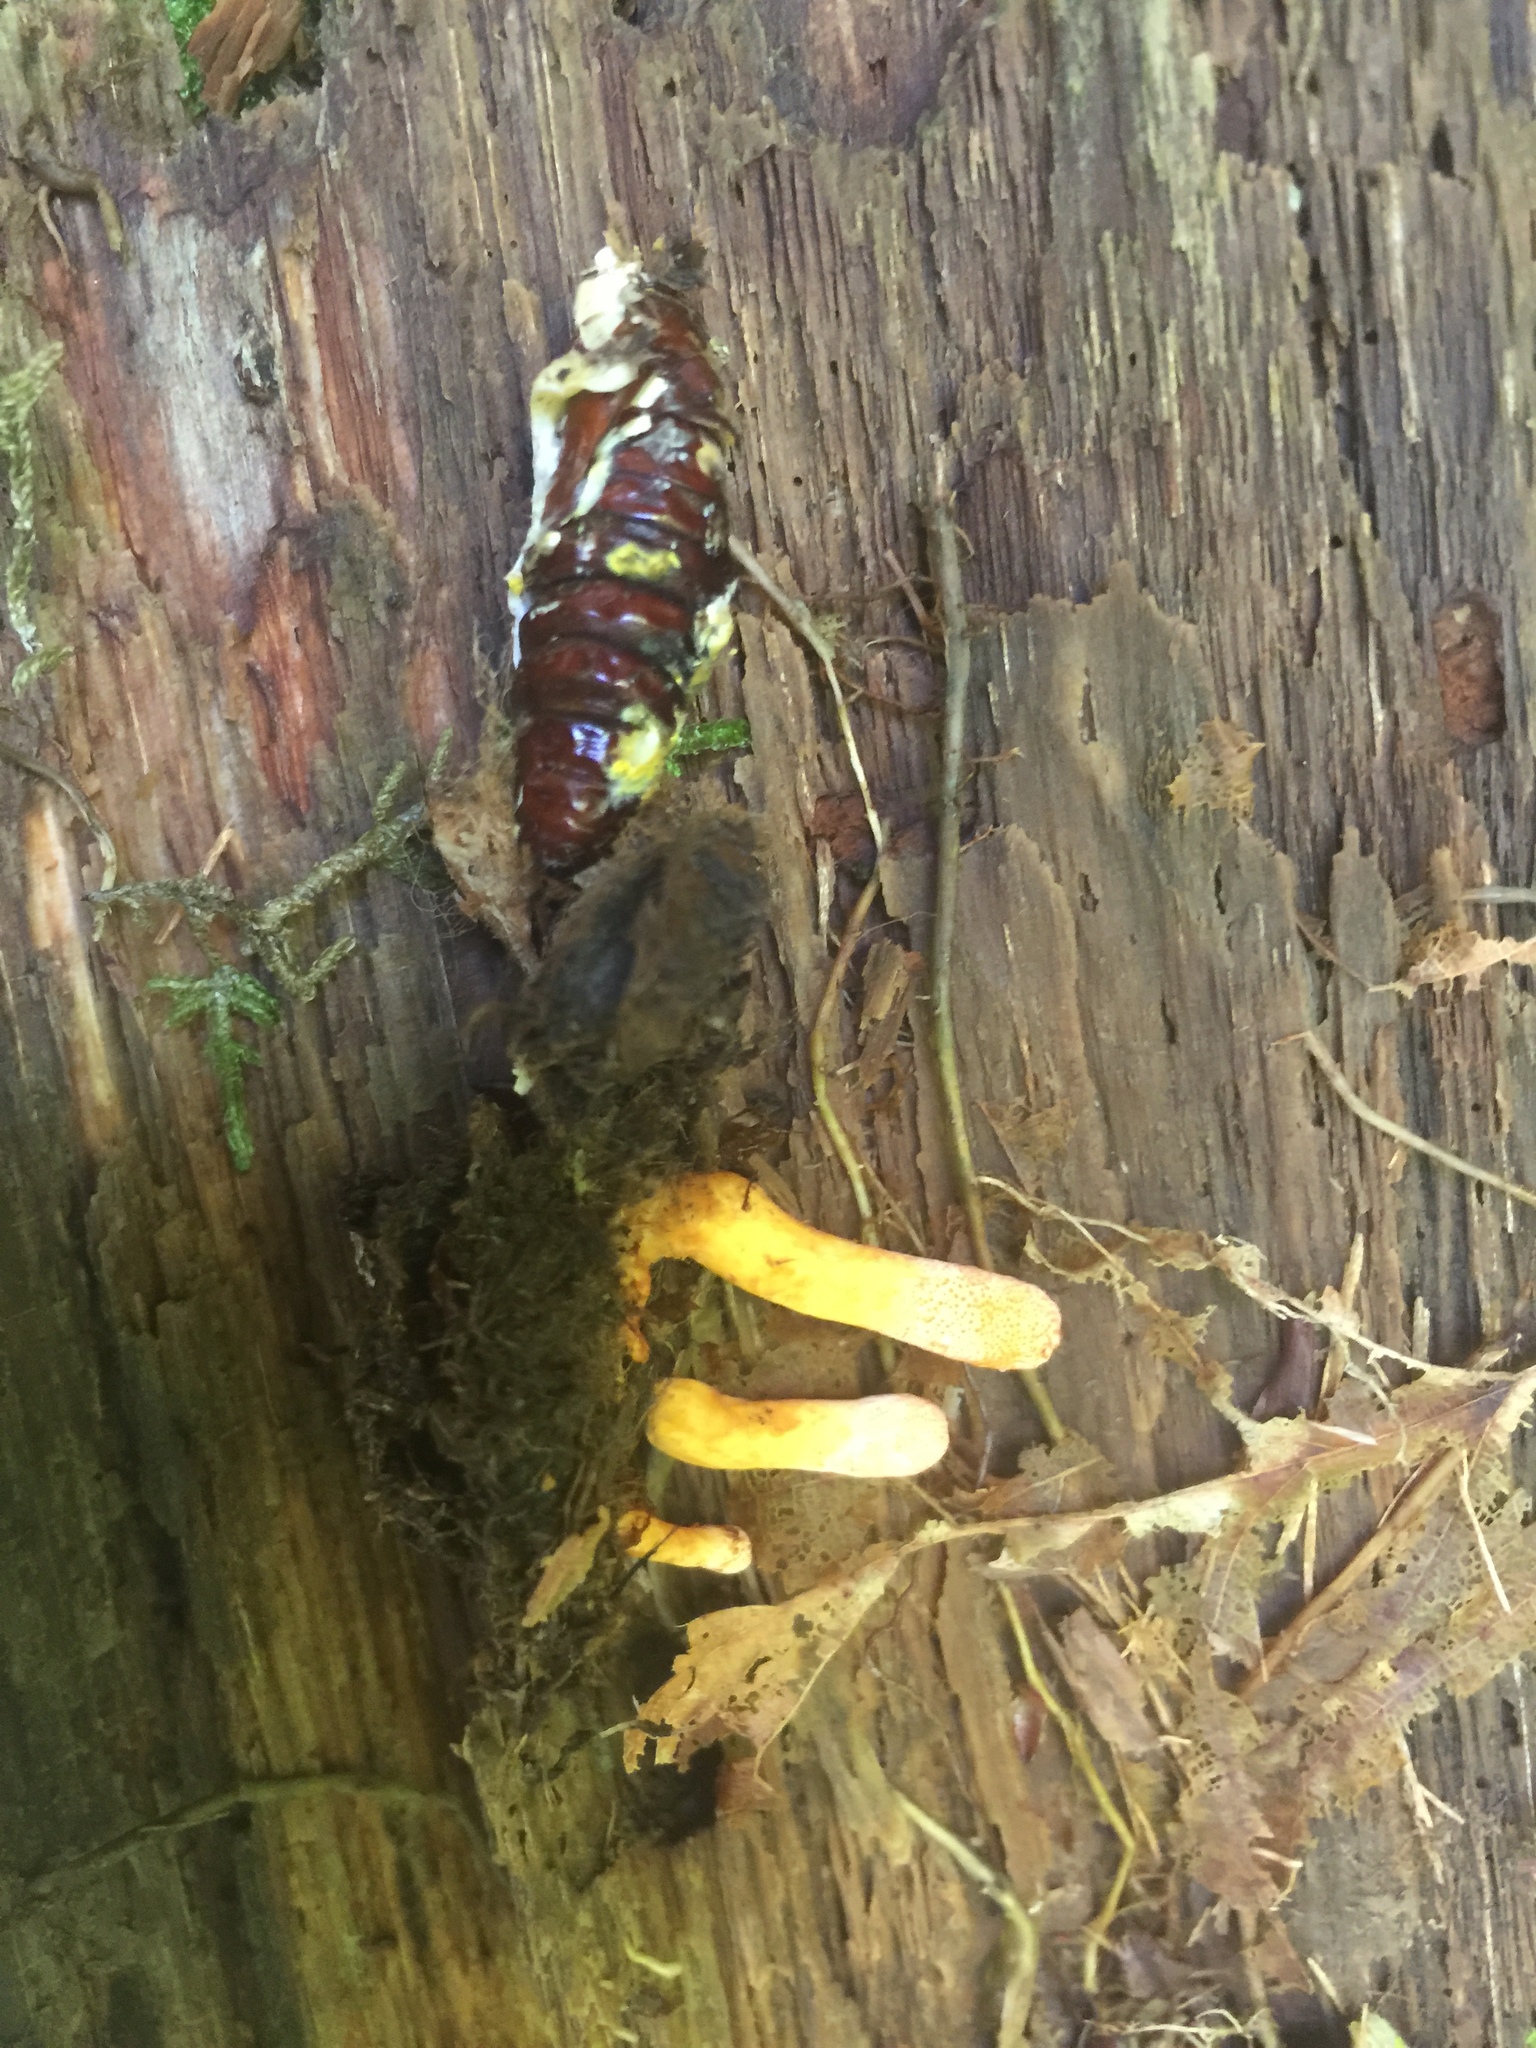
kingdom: Fungi
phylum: Ascomycota
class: Sordariomycetes
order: Hypocreales
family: Cordycipitaceae
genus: Cordyceps
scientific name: Cordyceps militaris
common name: Scarlet caterpillar fungus
